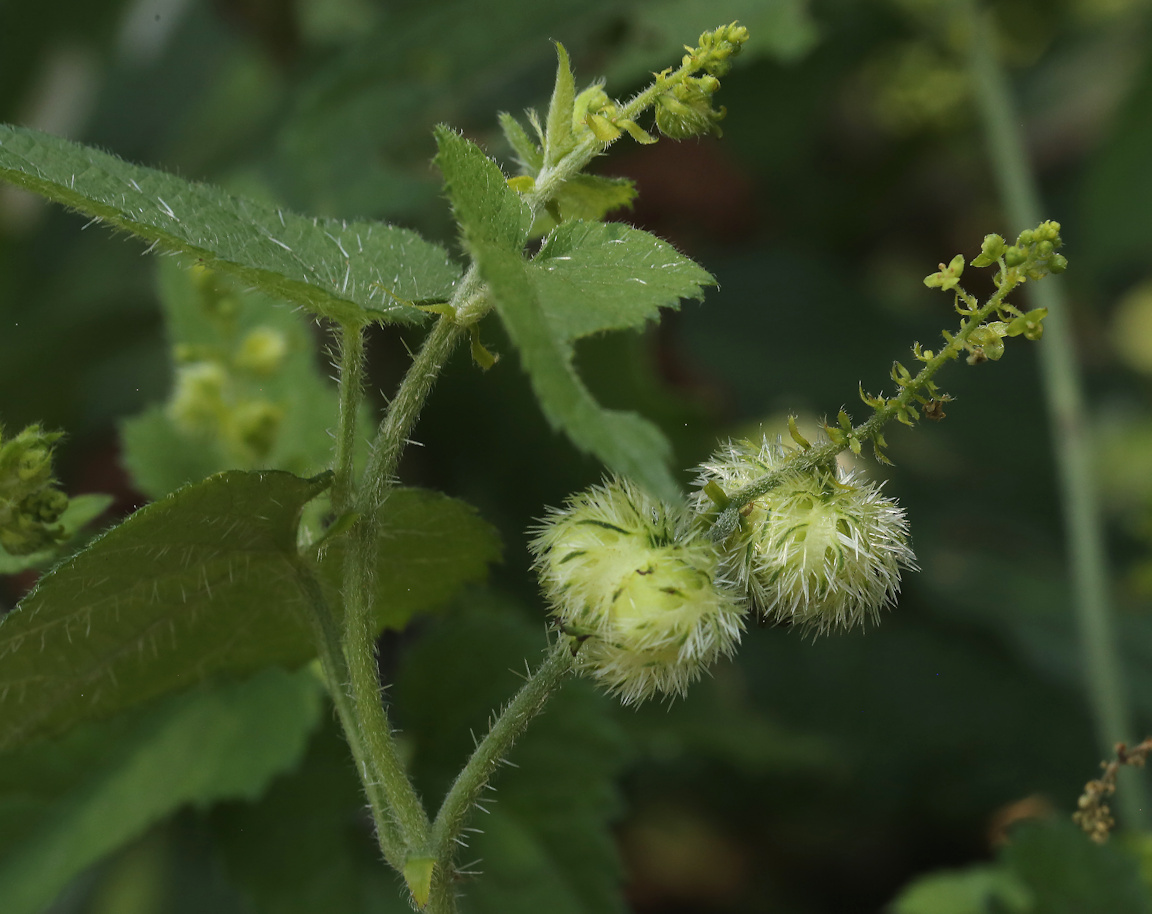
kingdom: Plantae
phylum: Tracheophyta
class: Magnoliopsida
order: Malpighiales
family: Euphorbiaceae
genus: Tragia
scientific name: Tragia okanyua
